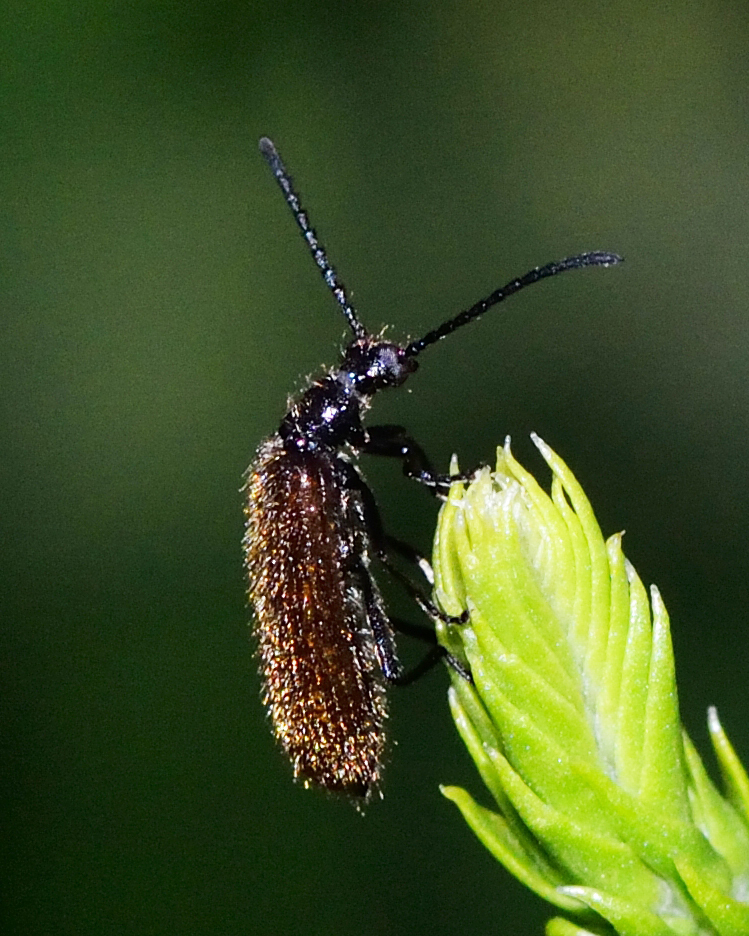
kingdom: Animalia
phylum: Arthropoda
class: Insecta
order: Coleoptera
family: Tenebrionidae
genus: Lagria
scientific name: Lagria hirta
